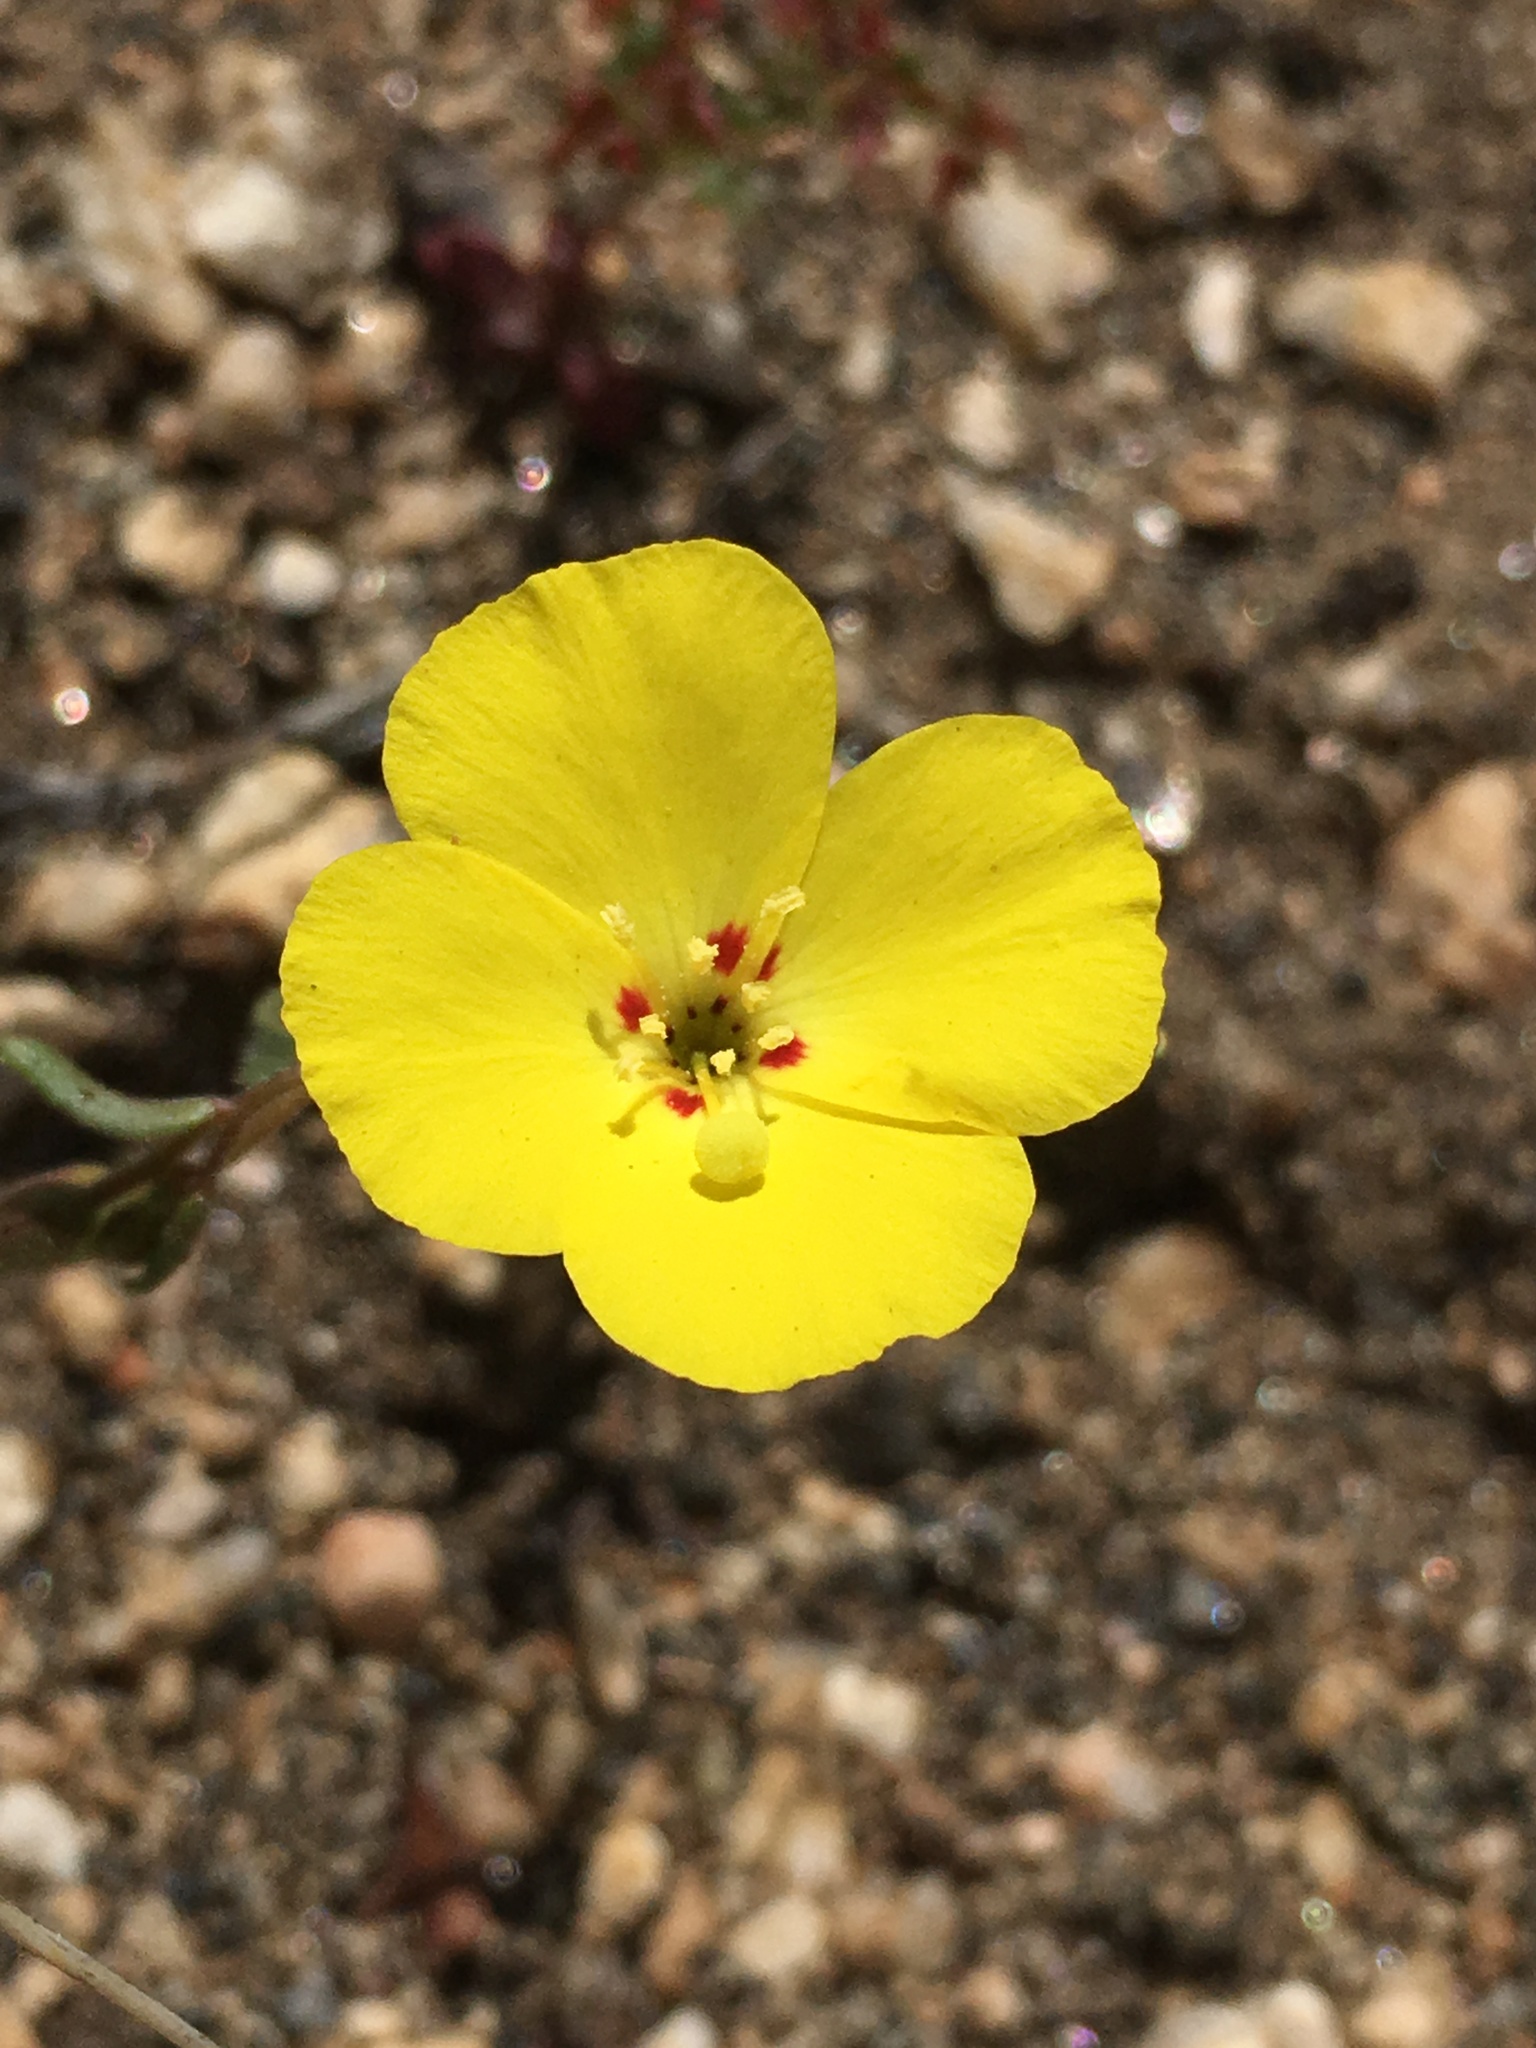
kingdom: Plantae
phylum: Tracheophyta
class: Magnoliopsida
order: Myrtales
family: Onagraceae
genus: Camissonia
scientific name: Camissonia campestris
